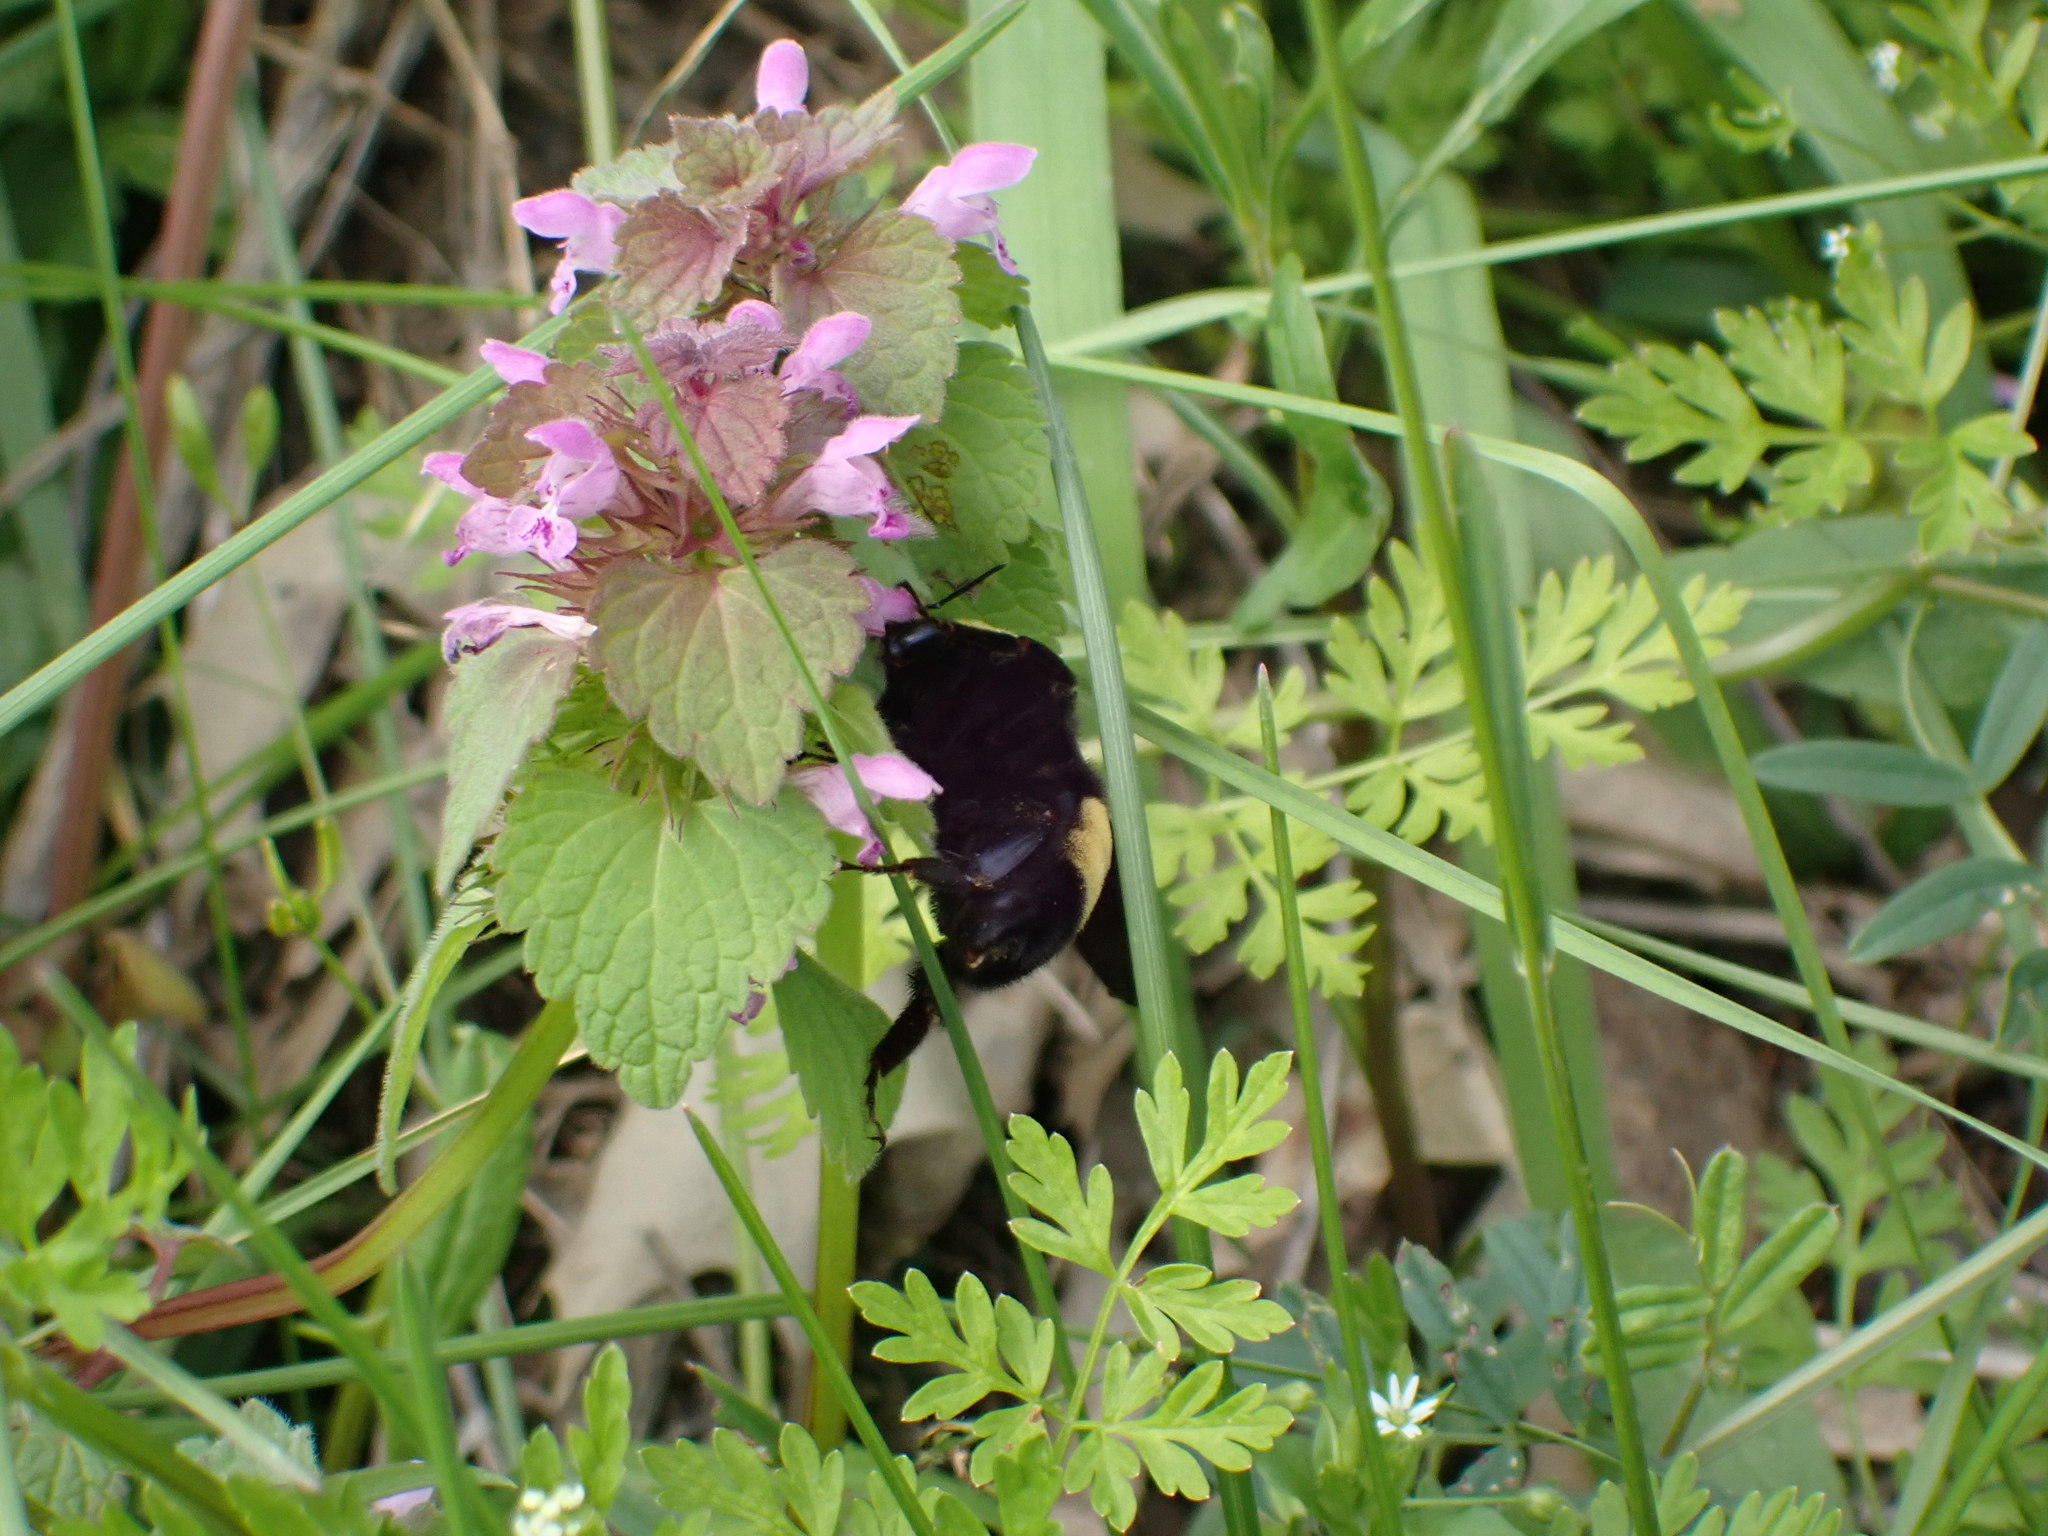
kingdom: Animalia
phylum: Arthropoda
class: Insecta
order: Hymenoptera
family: Apidae
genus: Bombus
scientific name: Bombus pensylvanicus
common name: Bumble bee
